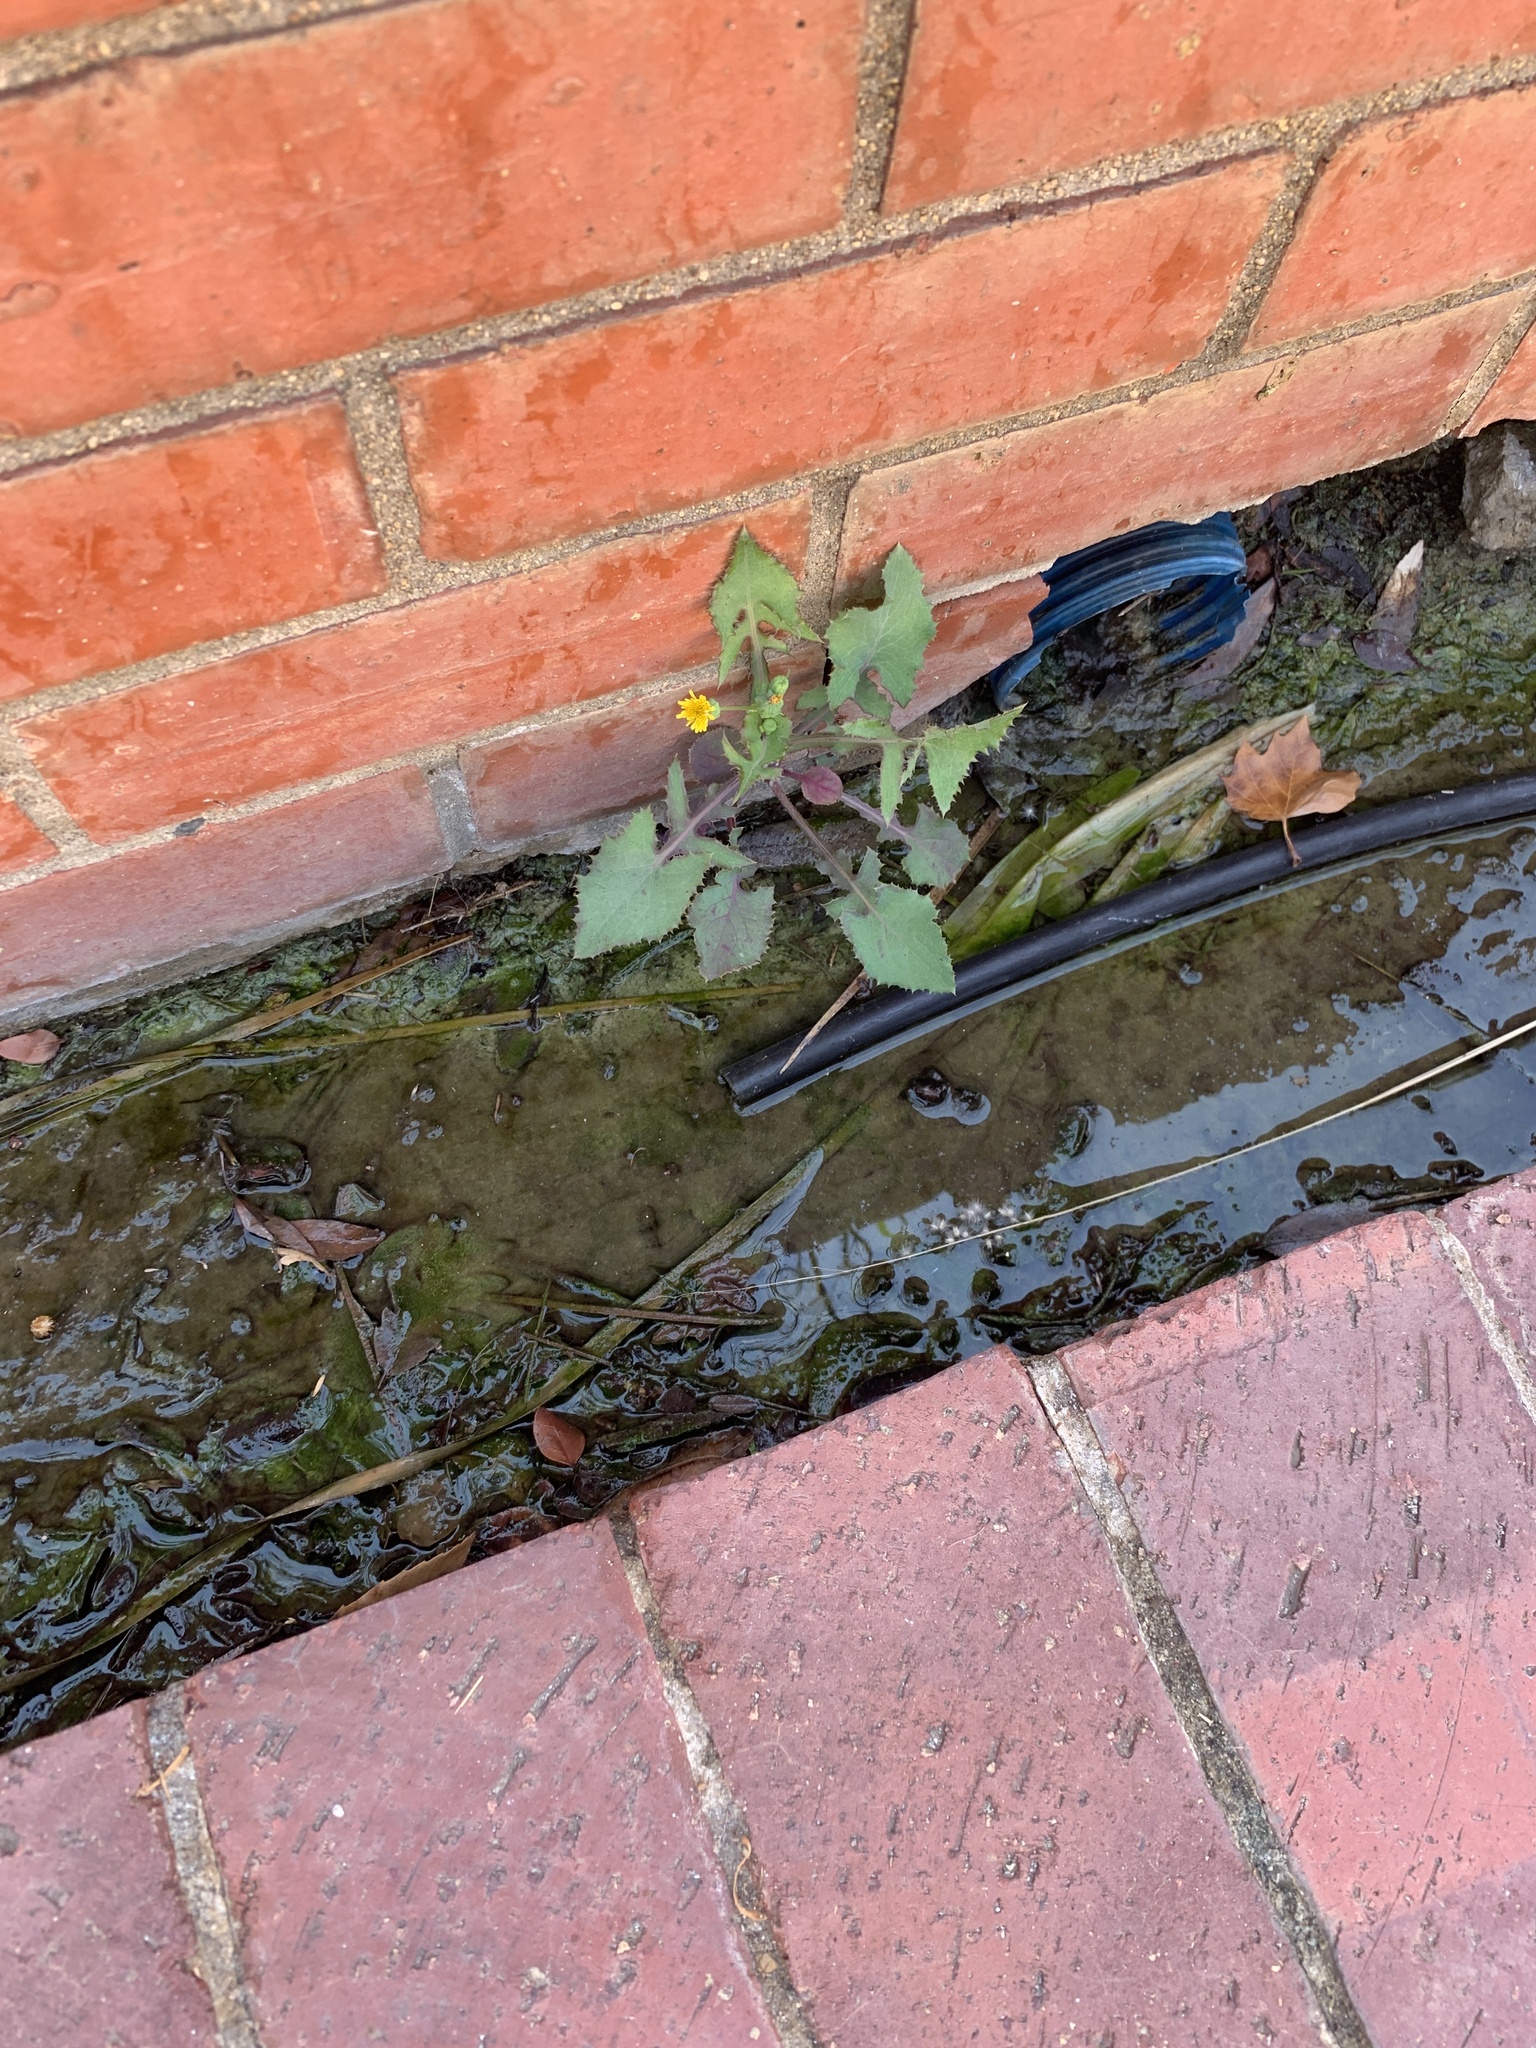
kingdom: Plantae
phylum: Tracheophyta
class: Magnoliopsida
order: Asterales
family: Asteraceae
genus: Sonchus
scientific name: Sonchus oleraceus
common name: Common sowthistle
